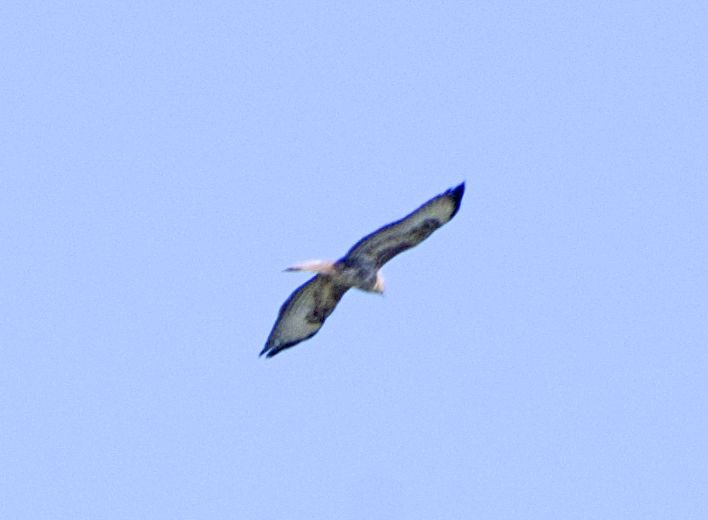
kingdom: Animalia
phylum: Chordata
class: Aves
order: Accipitriformes
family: Accipitridae
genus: Buteo
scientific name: Buteo buteo
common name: Common buzzard
